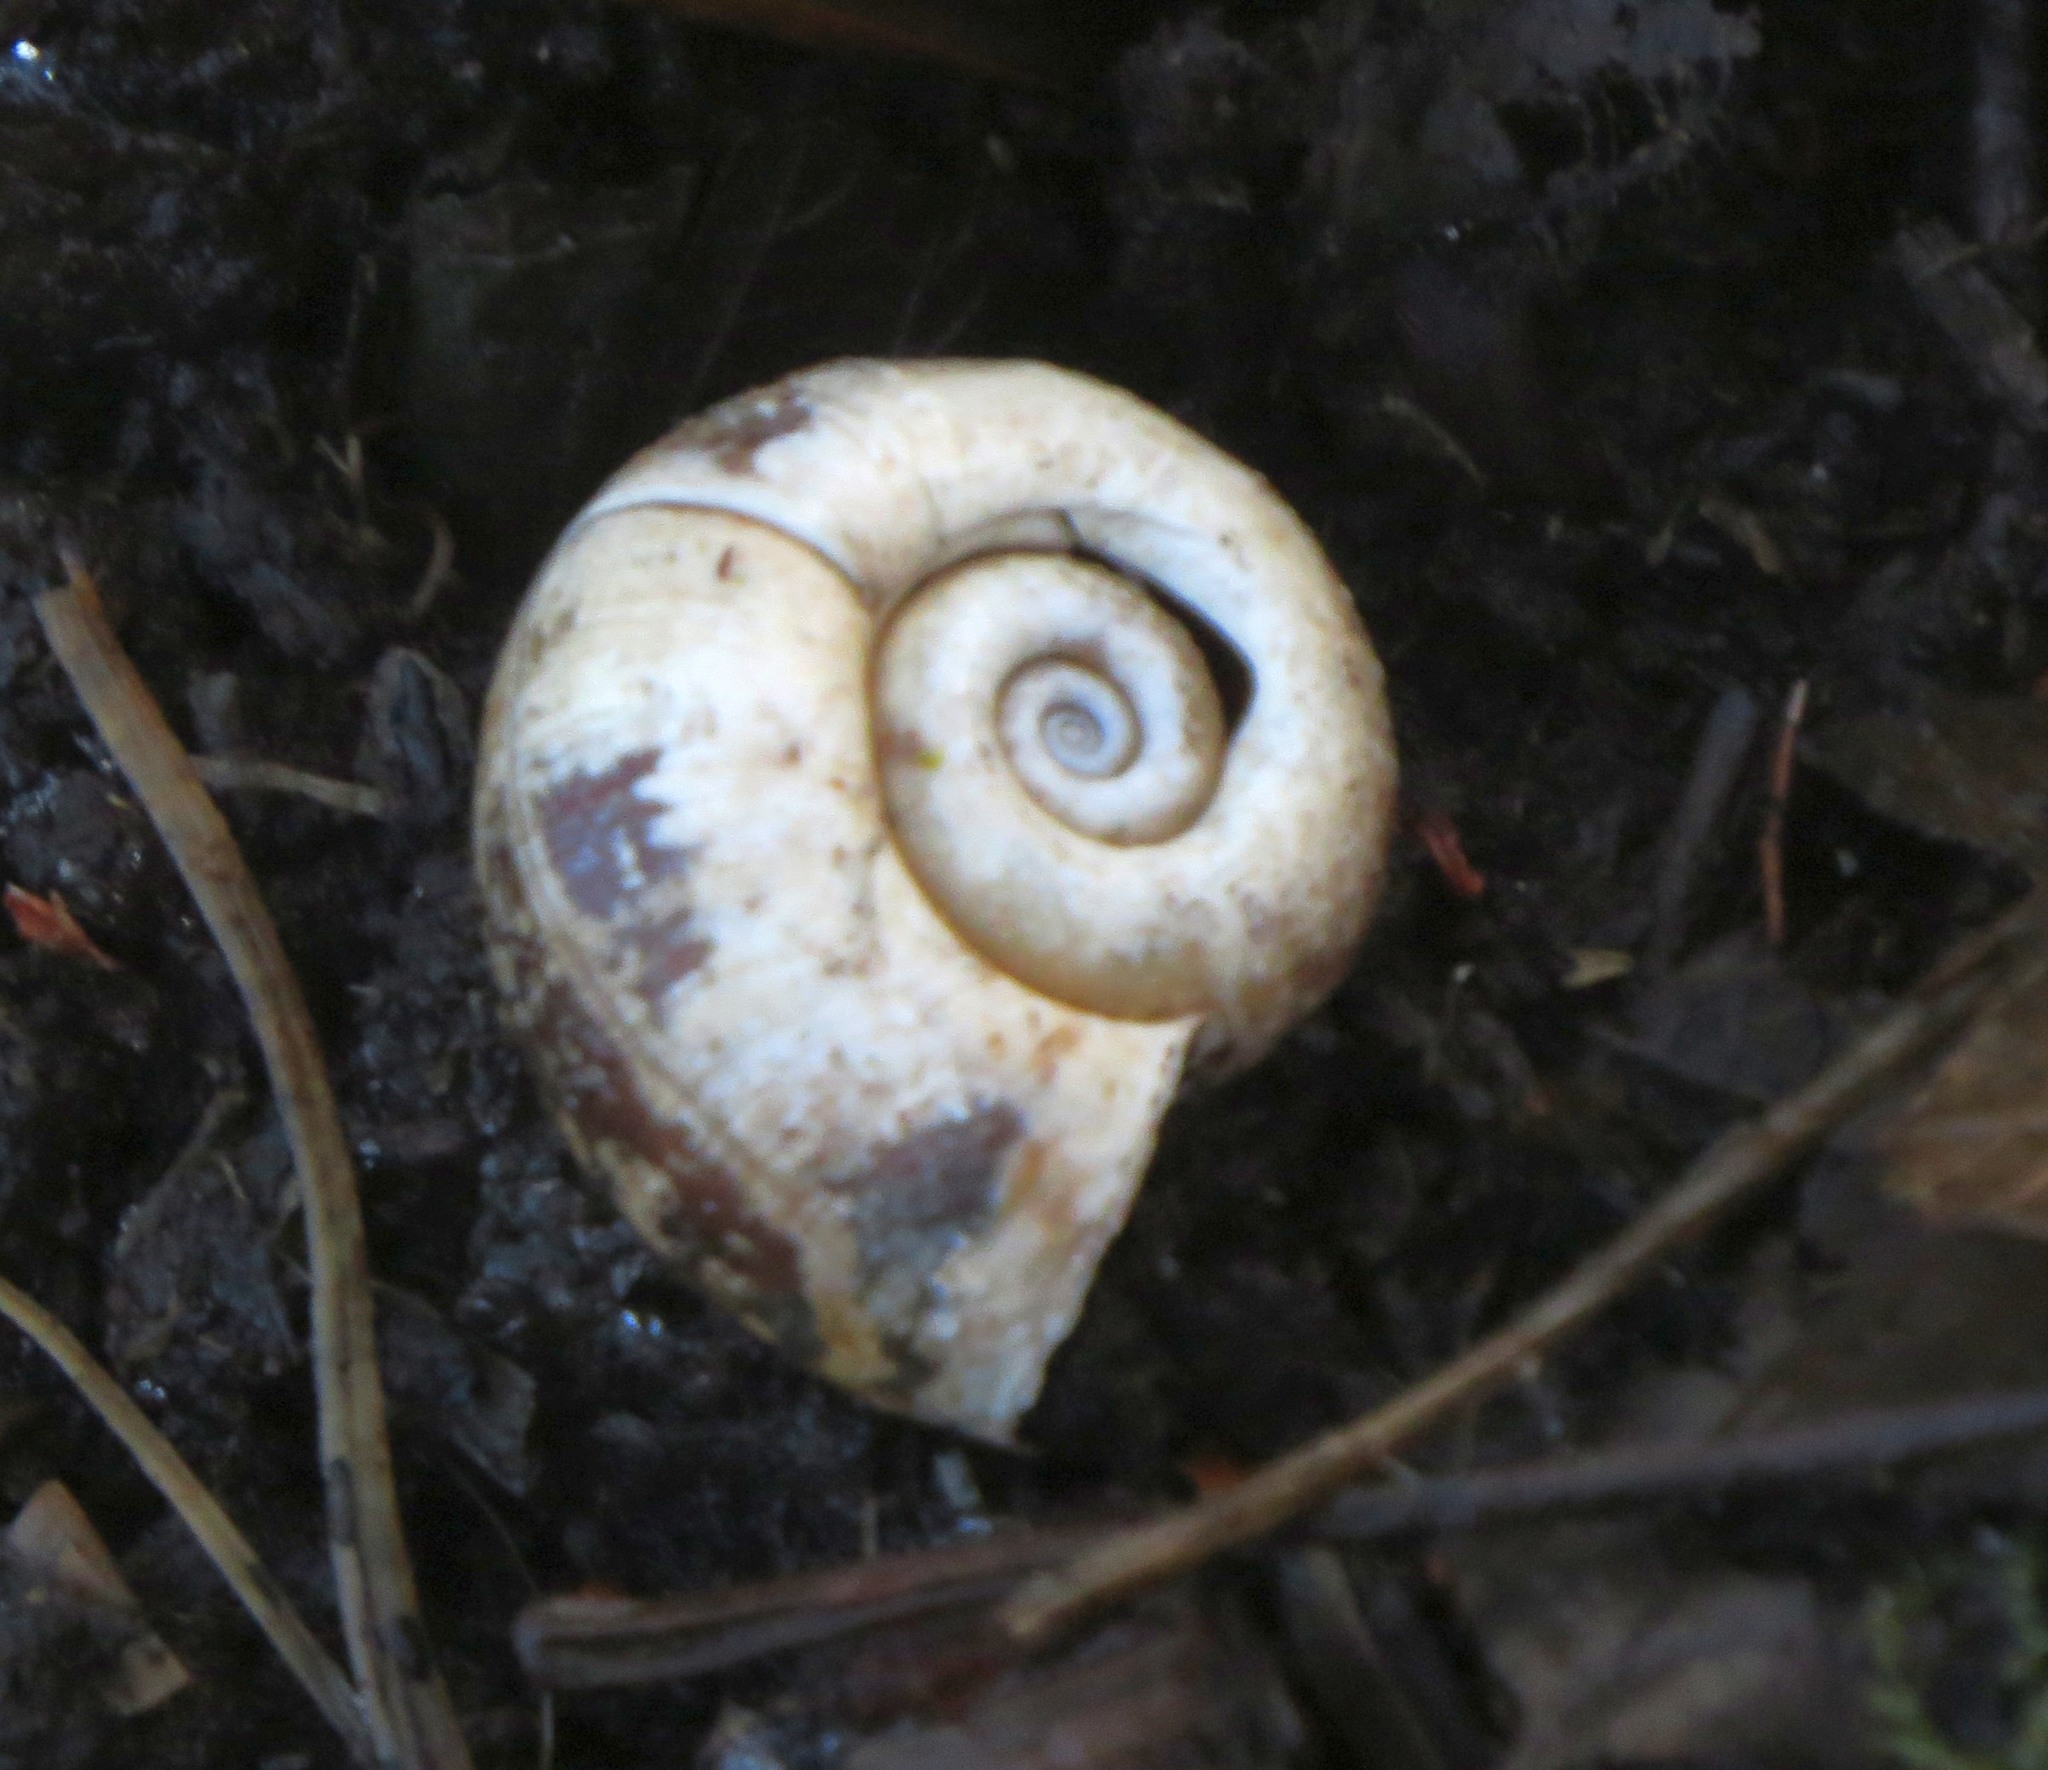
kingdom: Animalia
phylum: Mollusca
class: Gastropoda
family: Planorbidae
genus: Planorbarius
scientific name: Planorbarius corneus
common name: Great ramshorn
